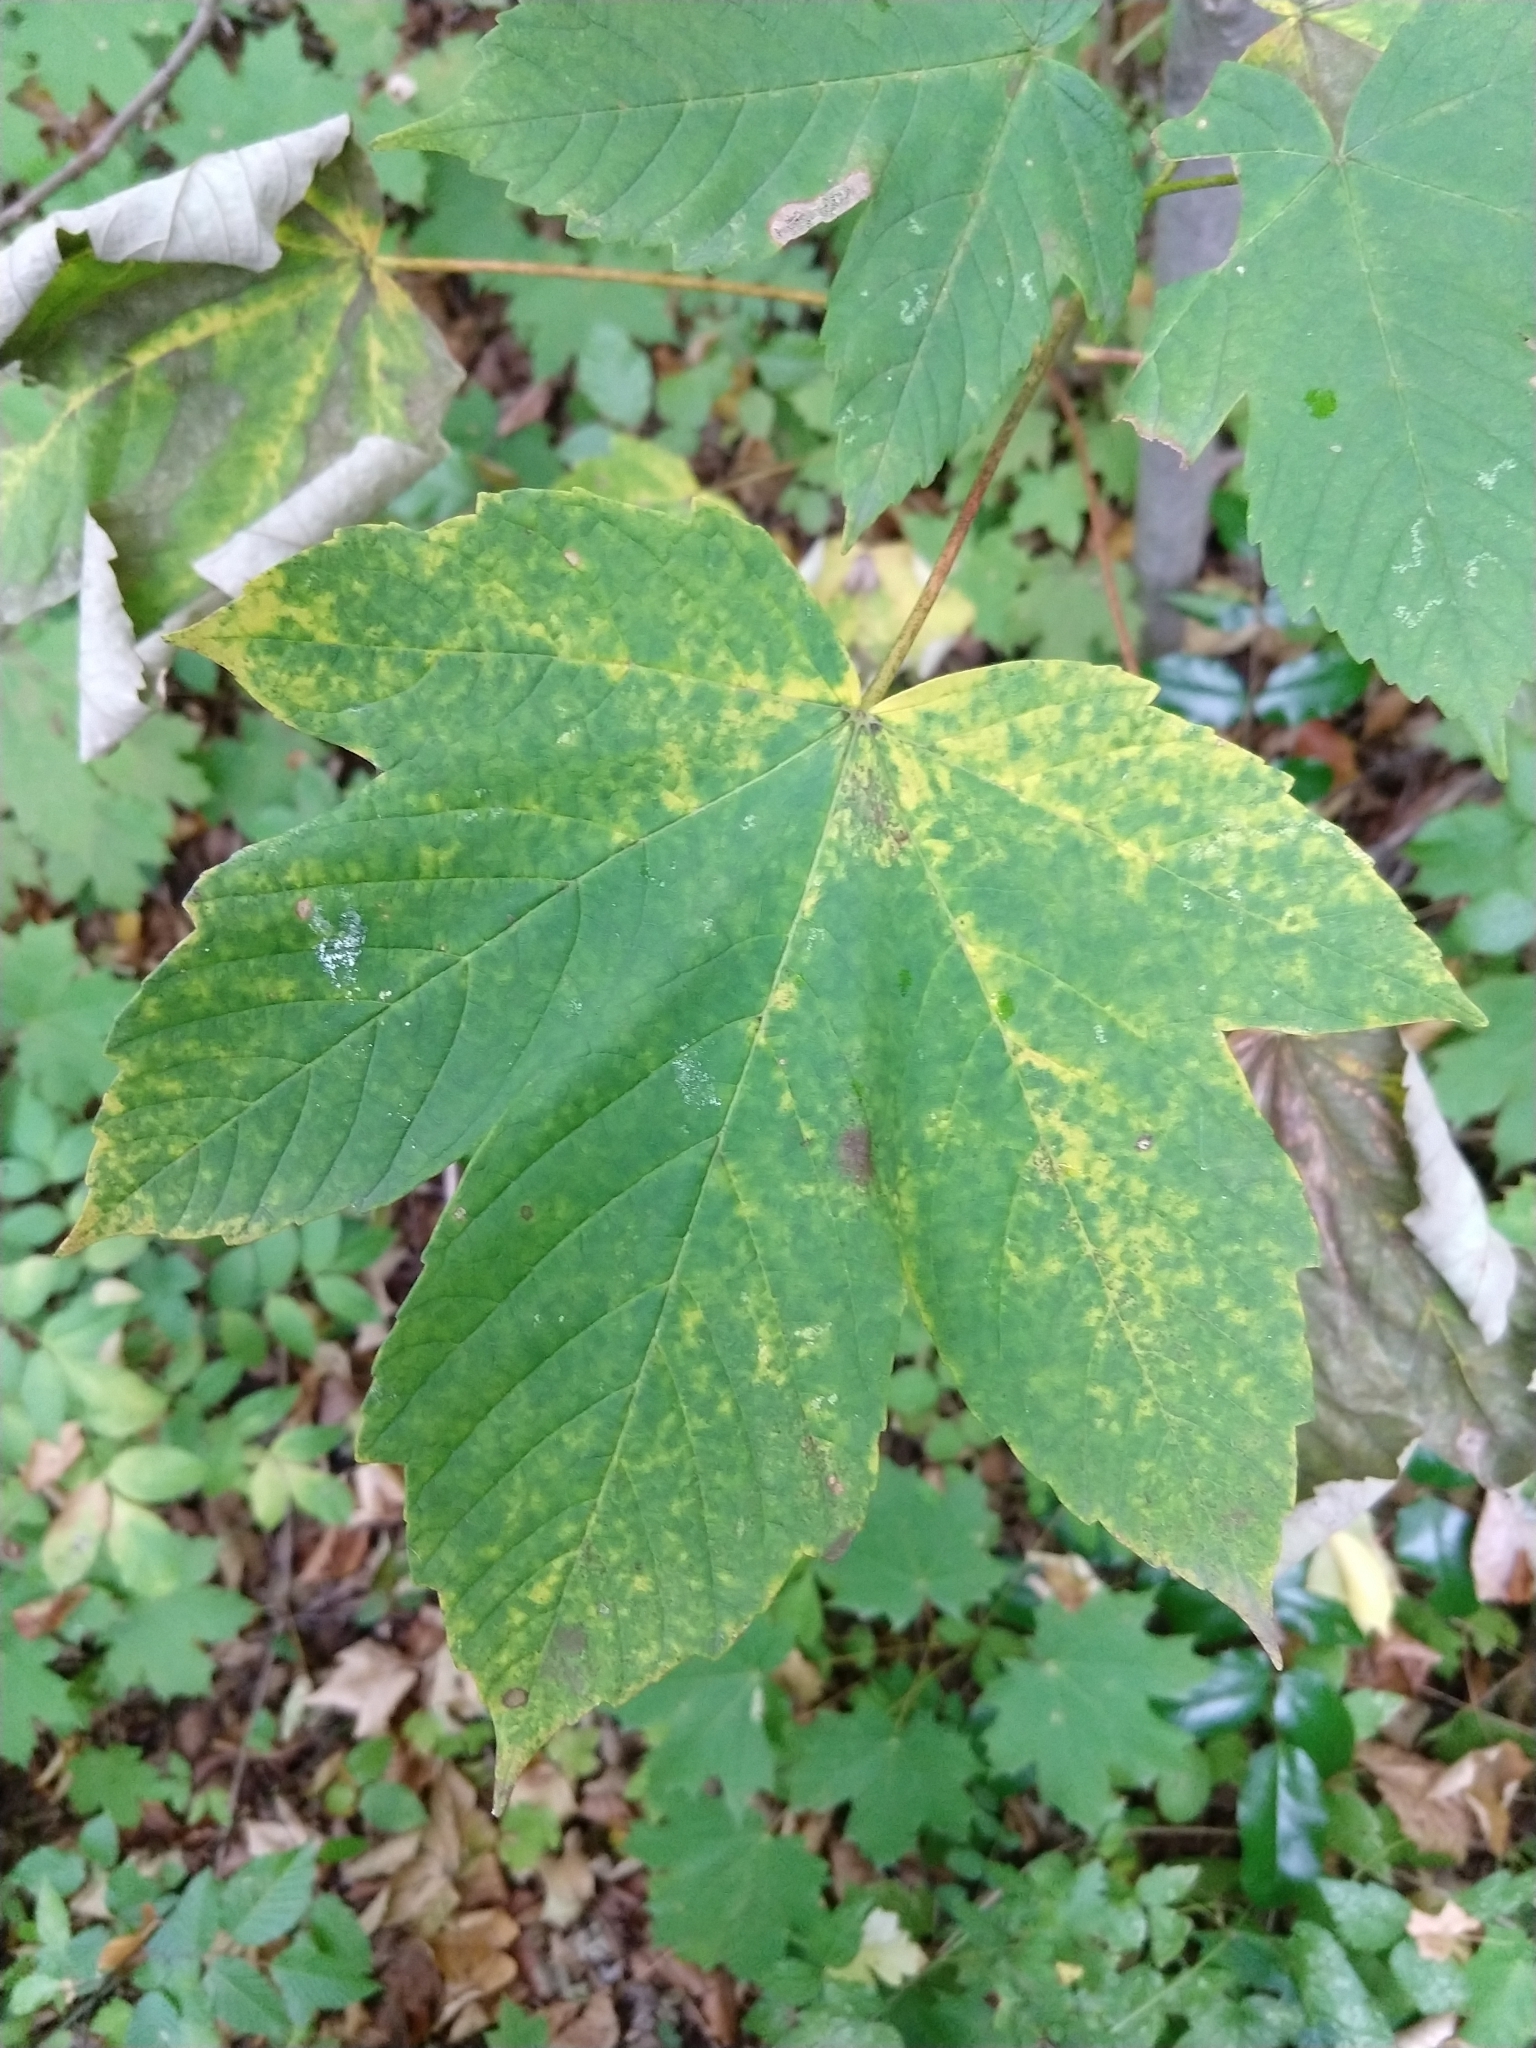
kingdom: Plantae
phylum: Tracheophyta
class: Magnoliopsida
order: Sapindales
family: Sapindaceae
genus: Acer
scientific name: Acer pseudoplatanus
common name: Sycamore
